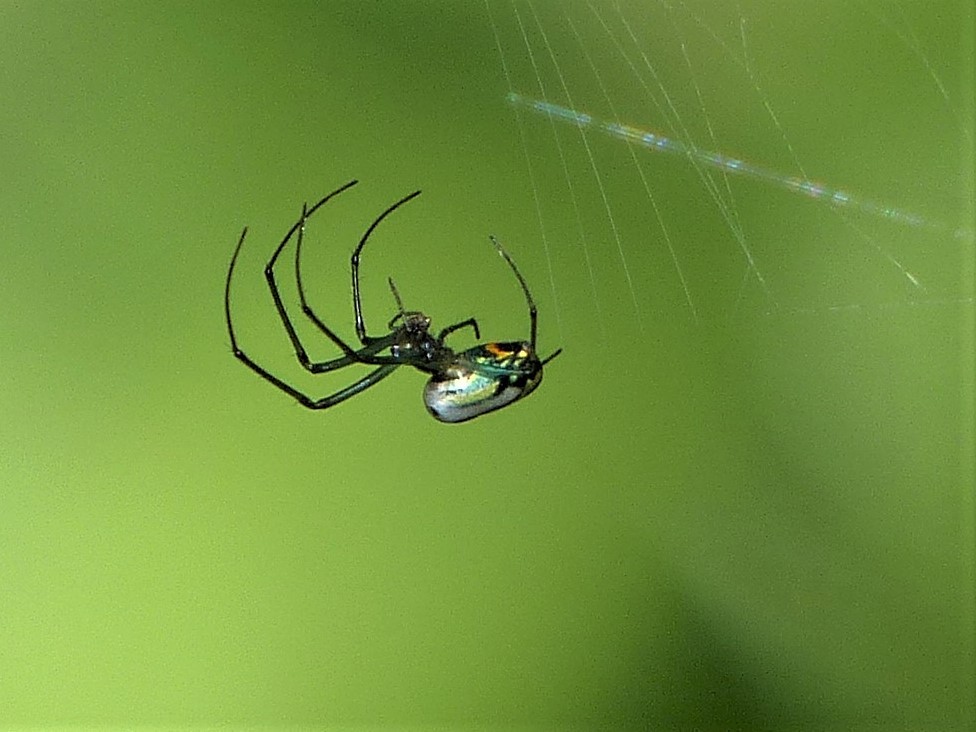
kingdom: Animalia
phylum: Arthropoda
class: Arachnida
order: Araneae
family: Tetragnathidae
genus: Leucauge
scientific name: Leucauge venusta
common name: Longjawed orb weavers
